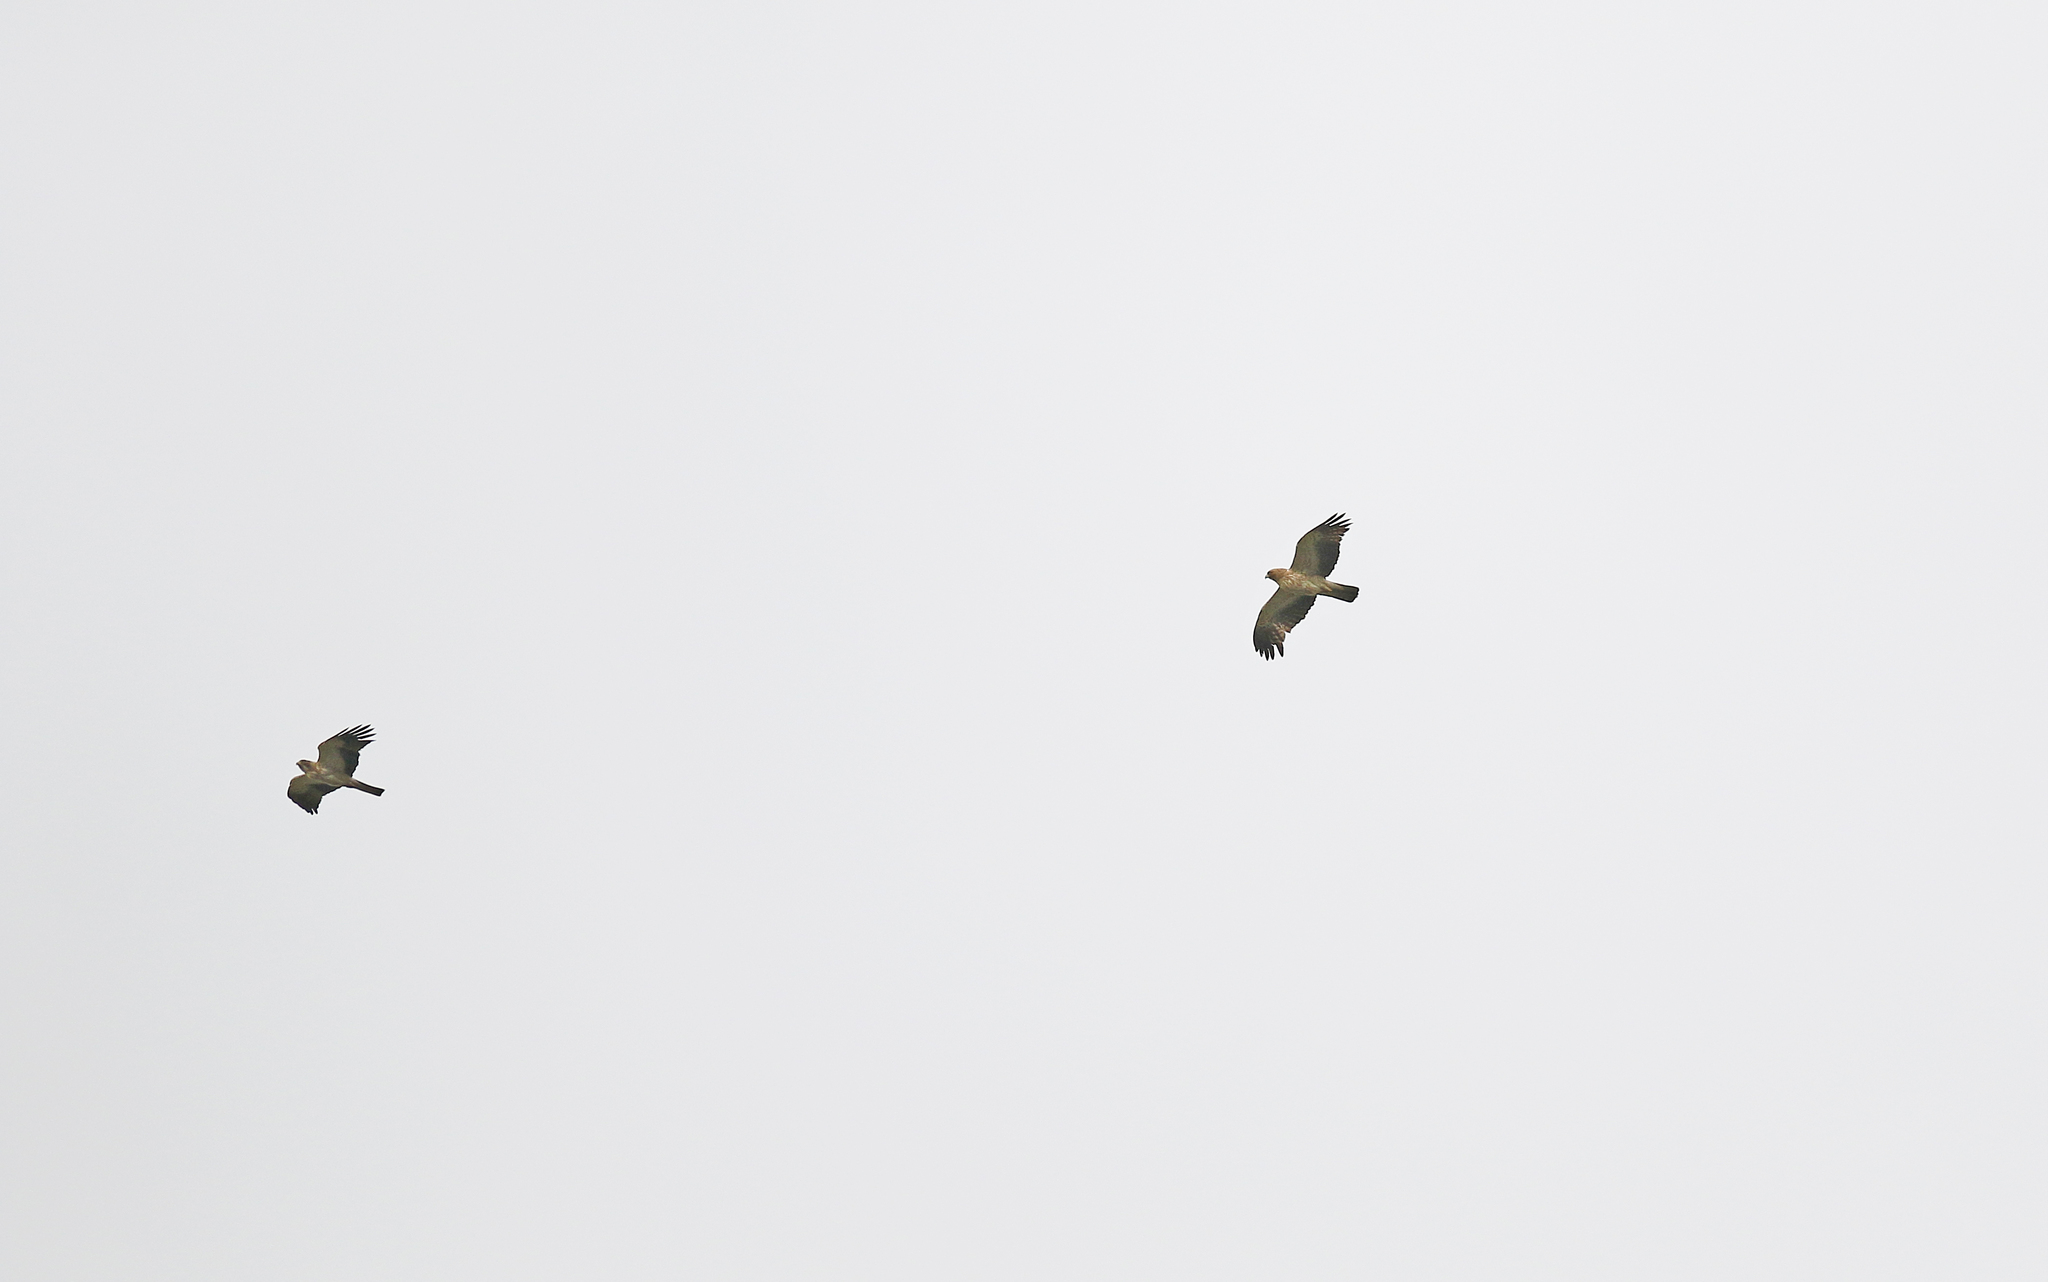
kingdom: Animalia
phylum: Chordata
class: Aves
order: Accipitriformes
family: Accipitridae
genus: Hieraaetus
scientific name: Hieraaetus pennatus
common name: Booted eagle
